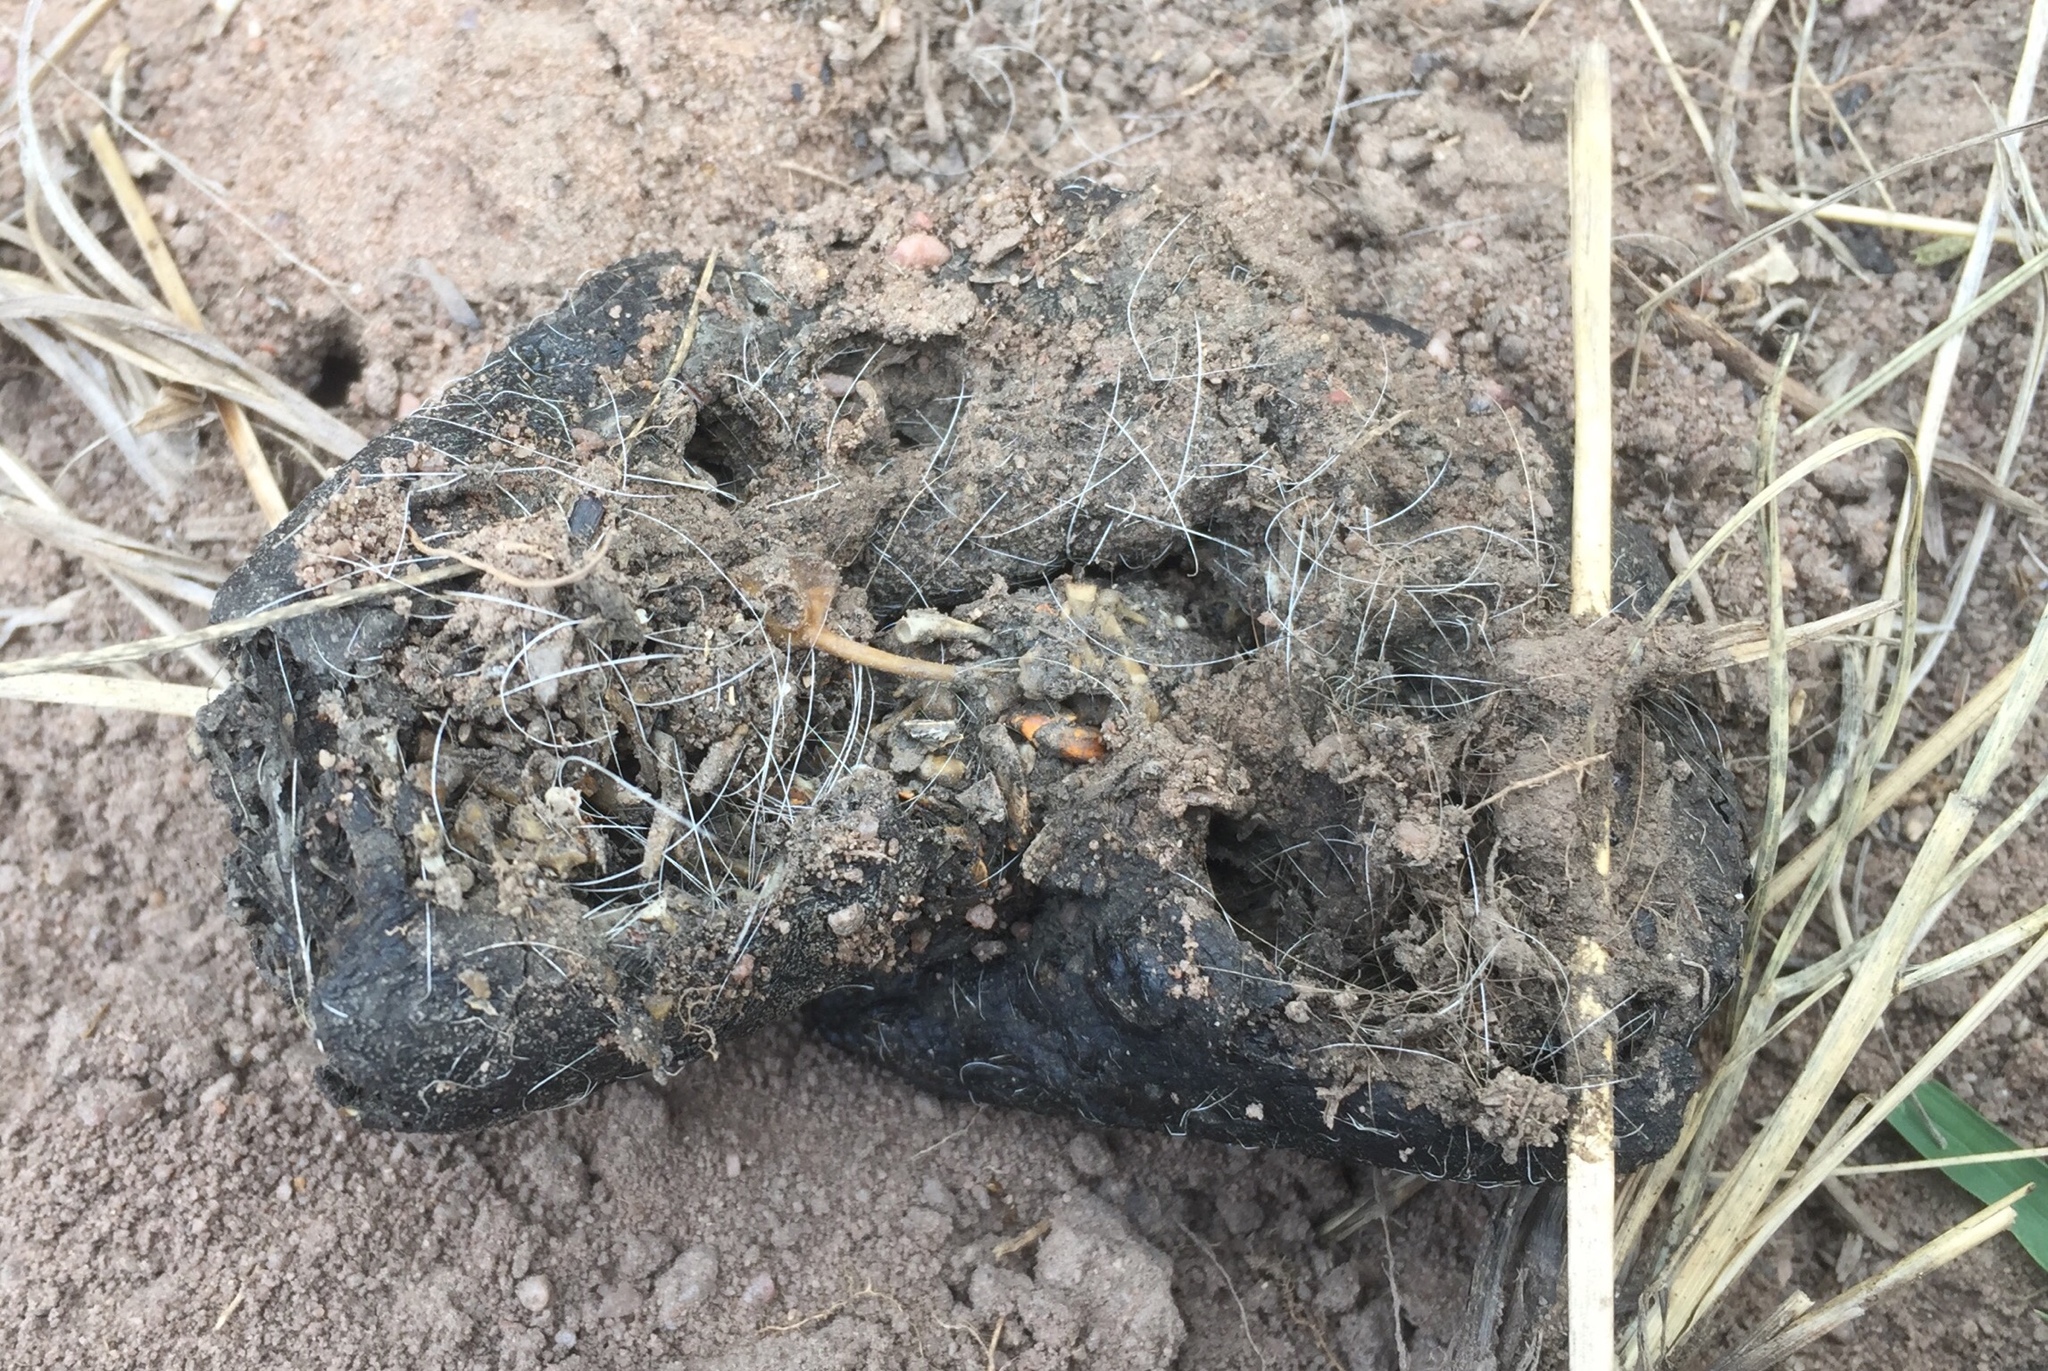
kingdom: Animalia
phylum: Chordata
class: Mammalia
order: Carnivora
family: Canidae
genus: Lupulella
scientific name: Lupulella
